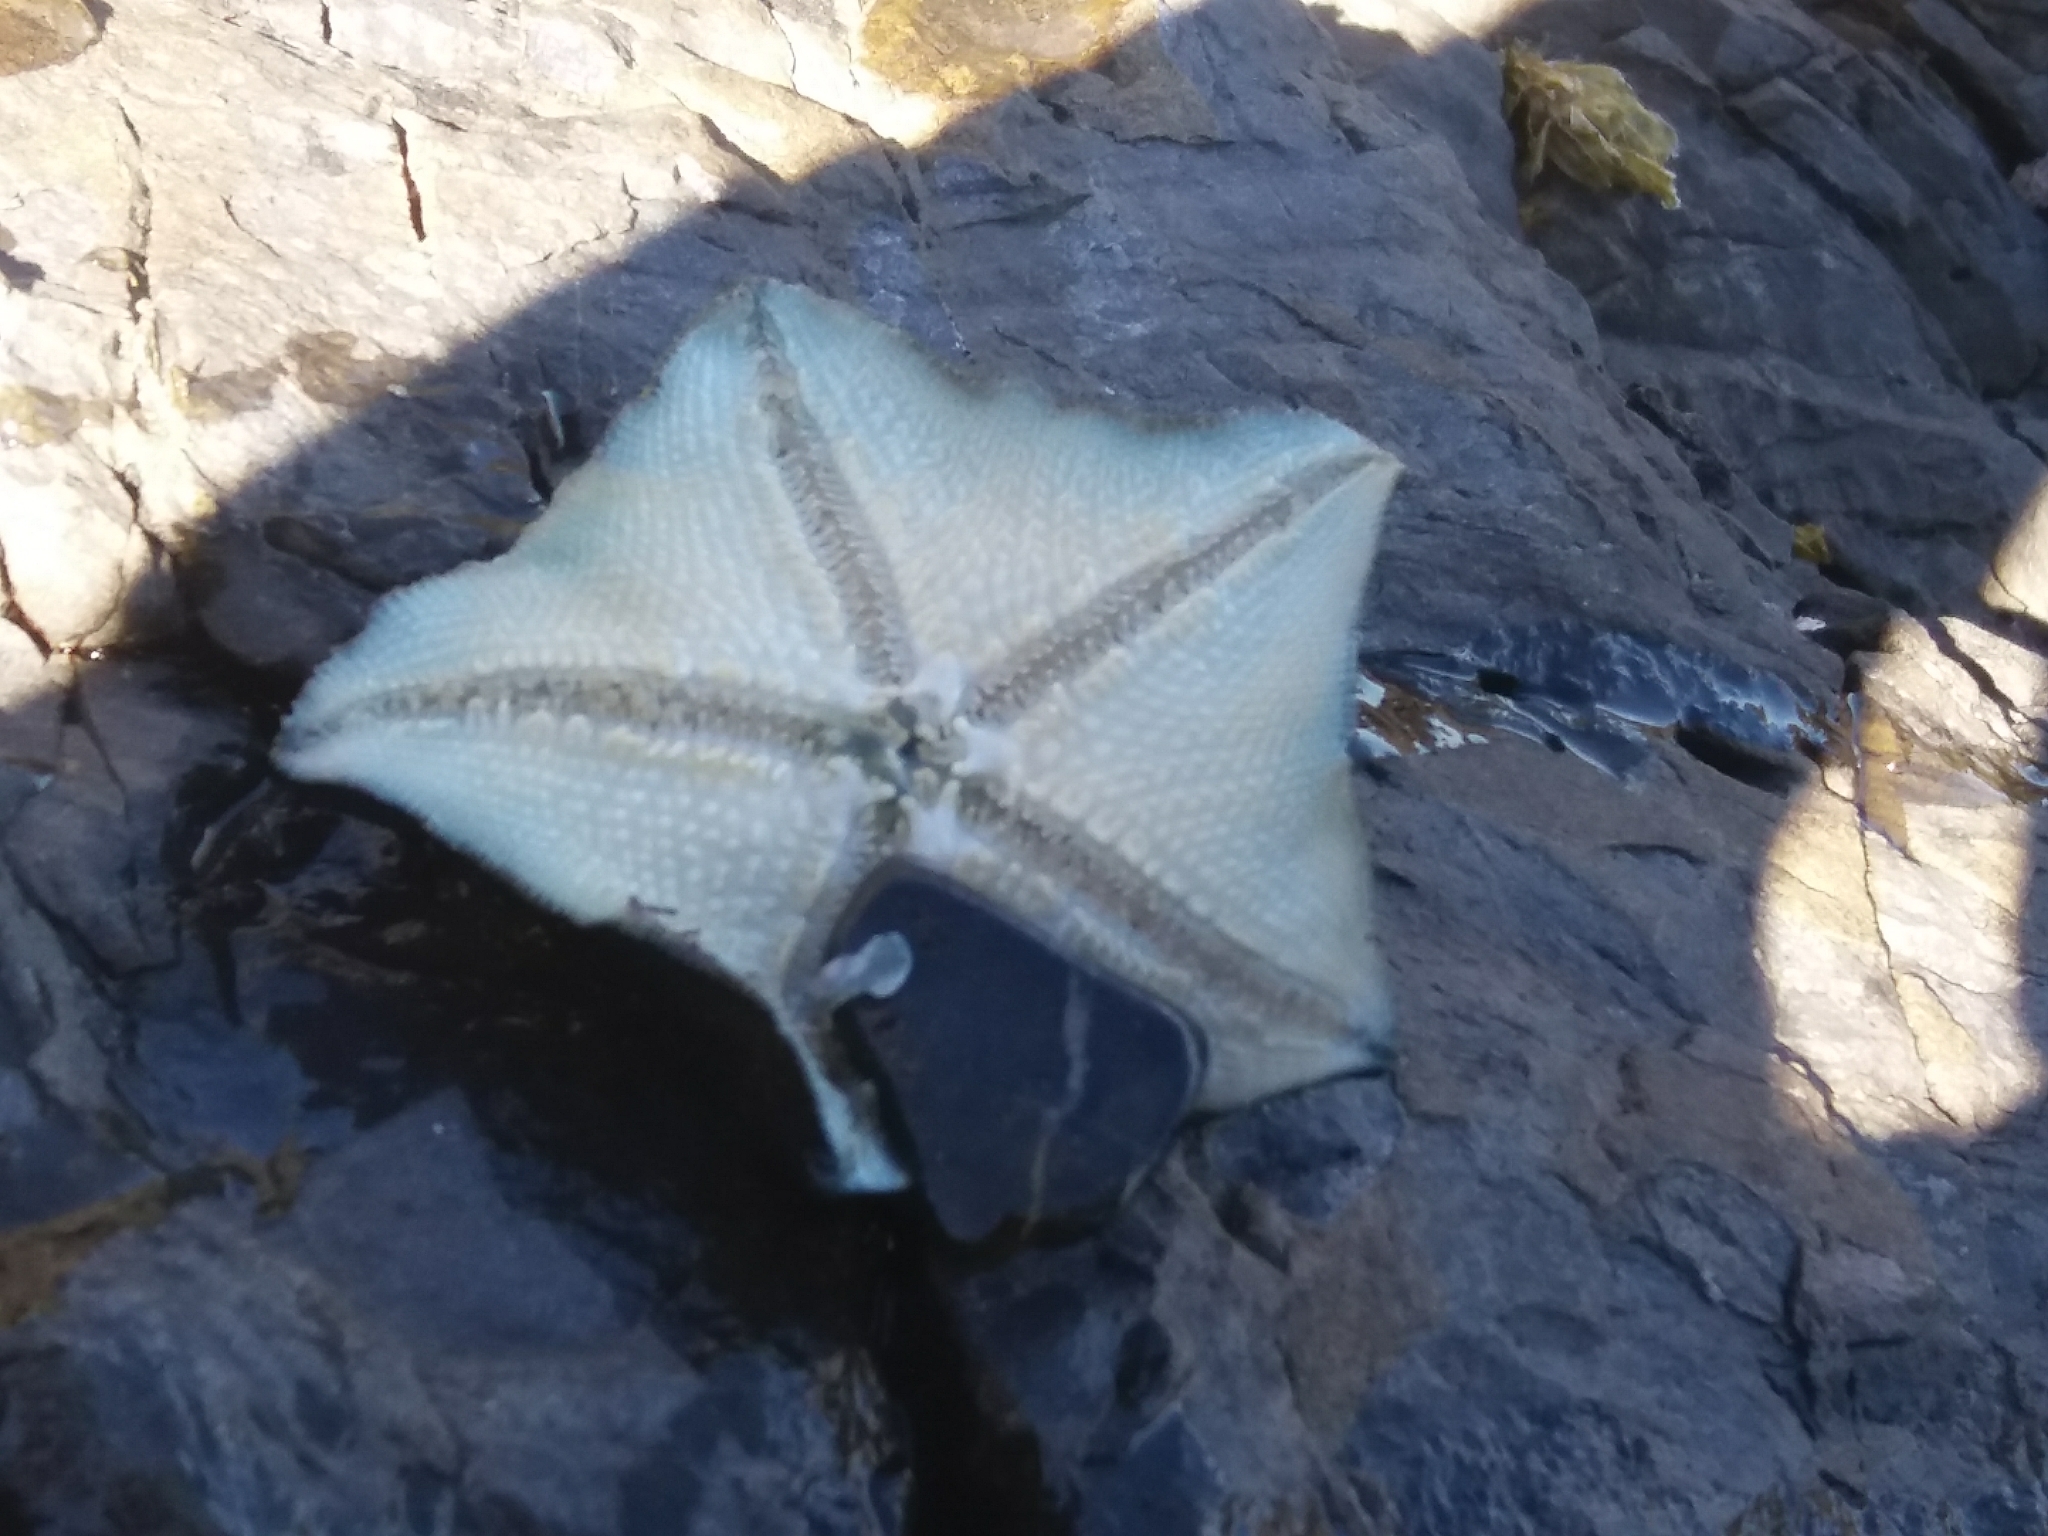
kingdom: Animalia
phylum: Echinodermata
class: Asteroidea
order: Valvatida
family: Asterinidae
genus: Patiriella
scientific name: Patiriella regularis
